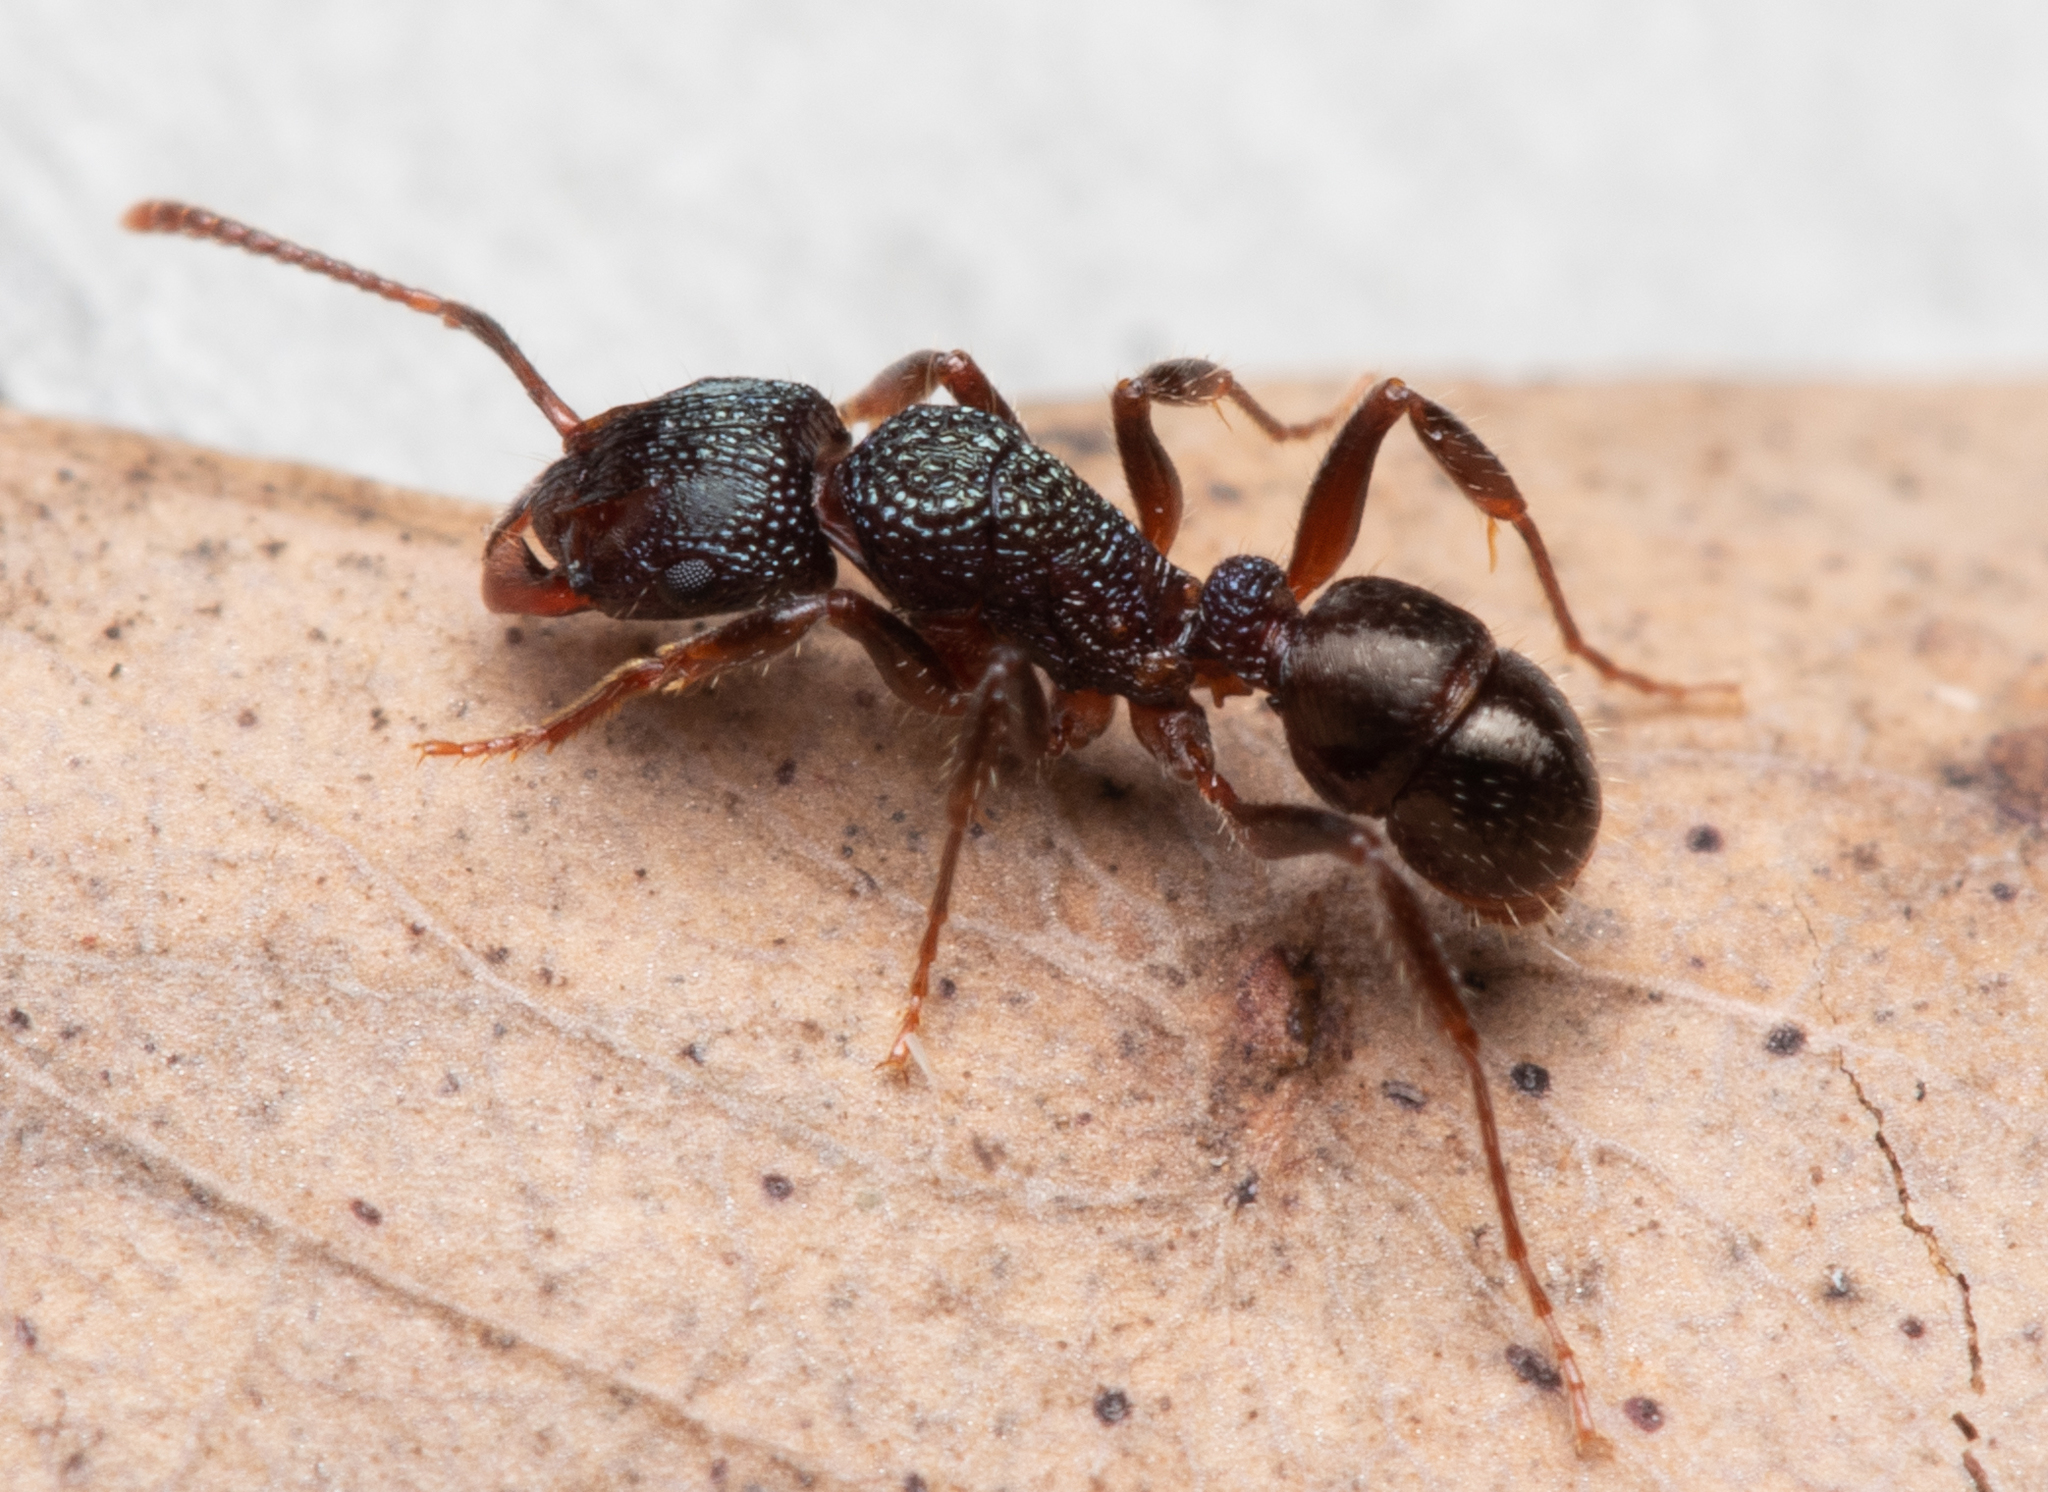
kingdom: Animalia
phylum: Arthropoda
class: Insecta
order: Hymenoptera
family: Formicidae
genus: Rhytidoponera
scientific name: Rhytidoponera victoriae
